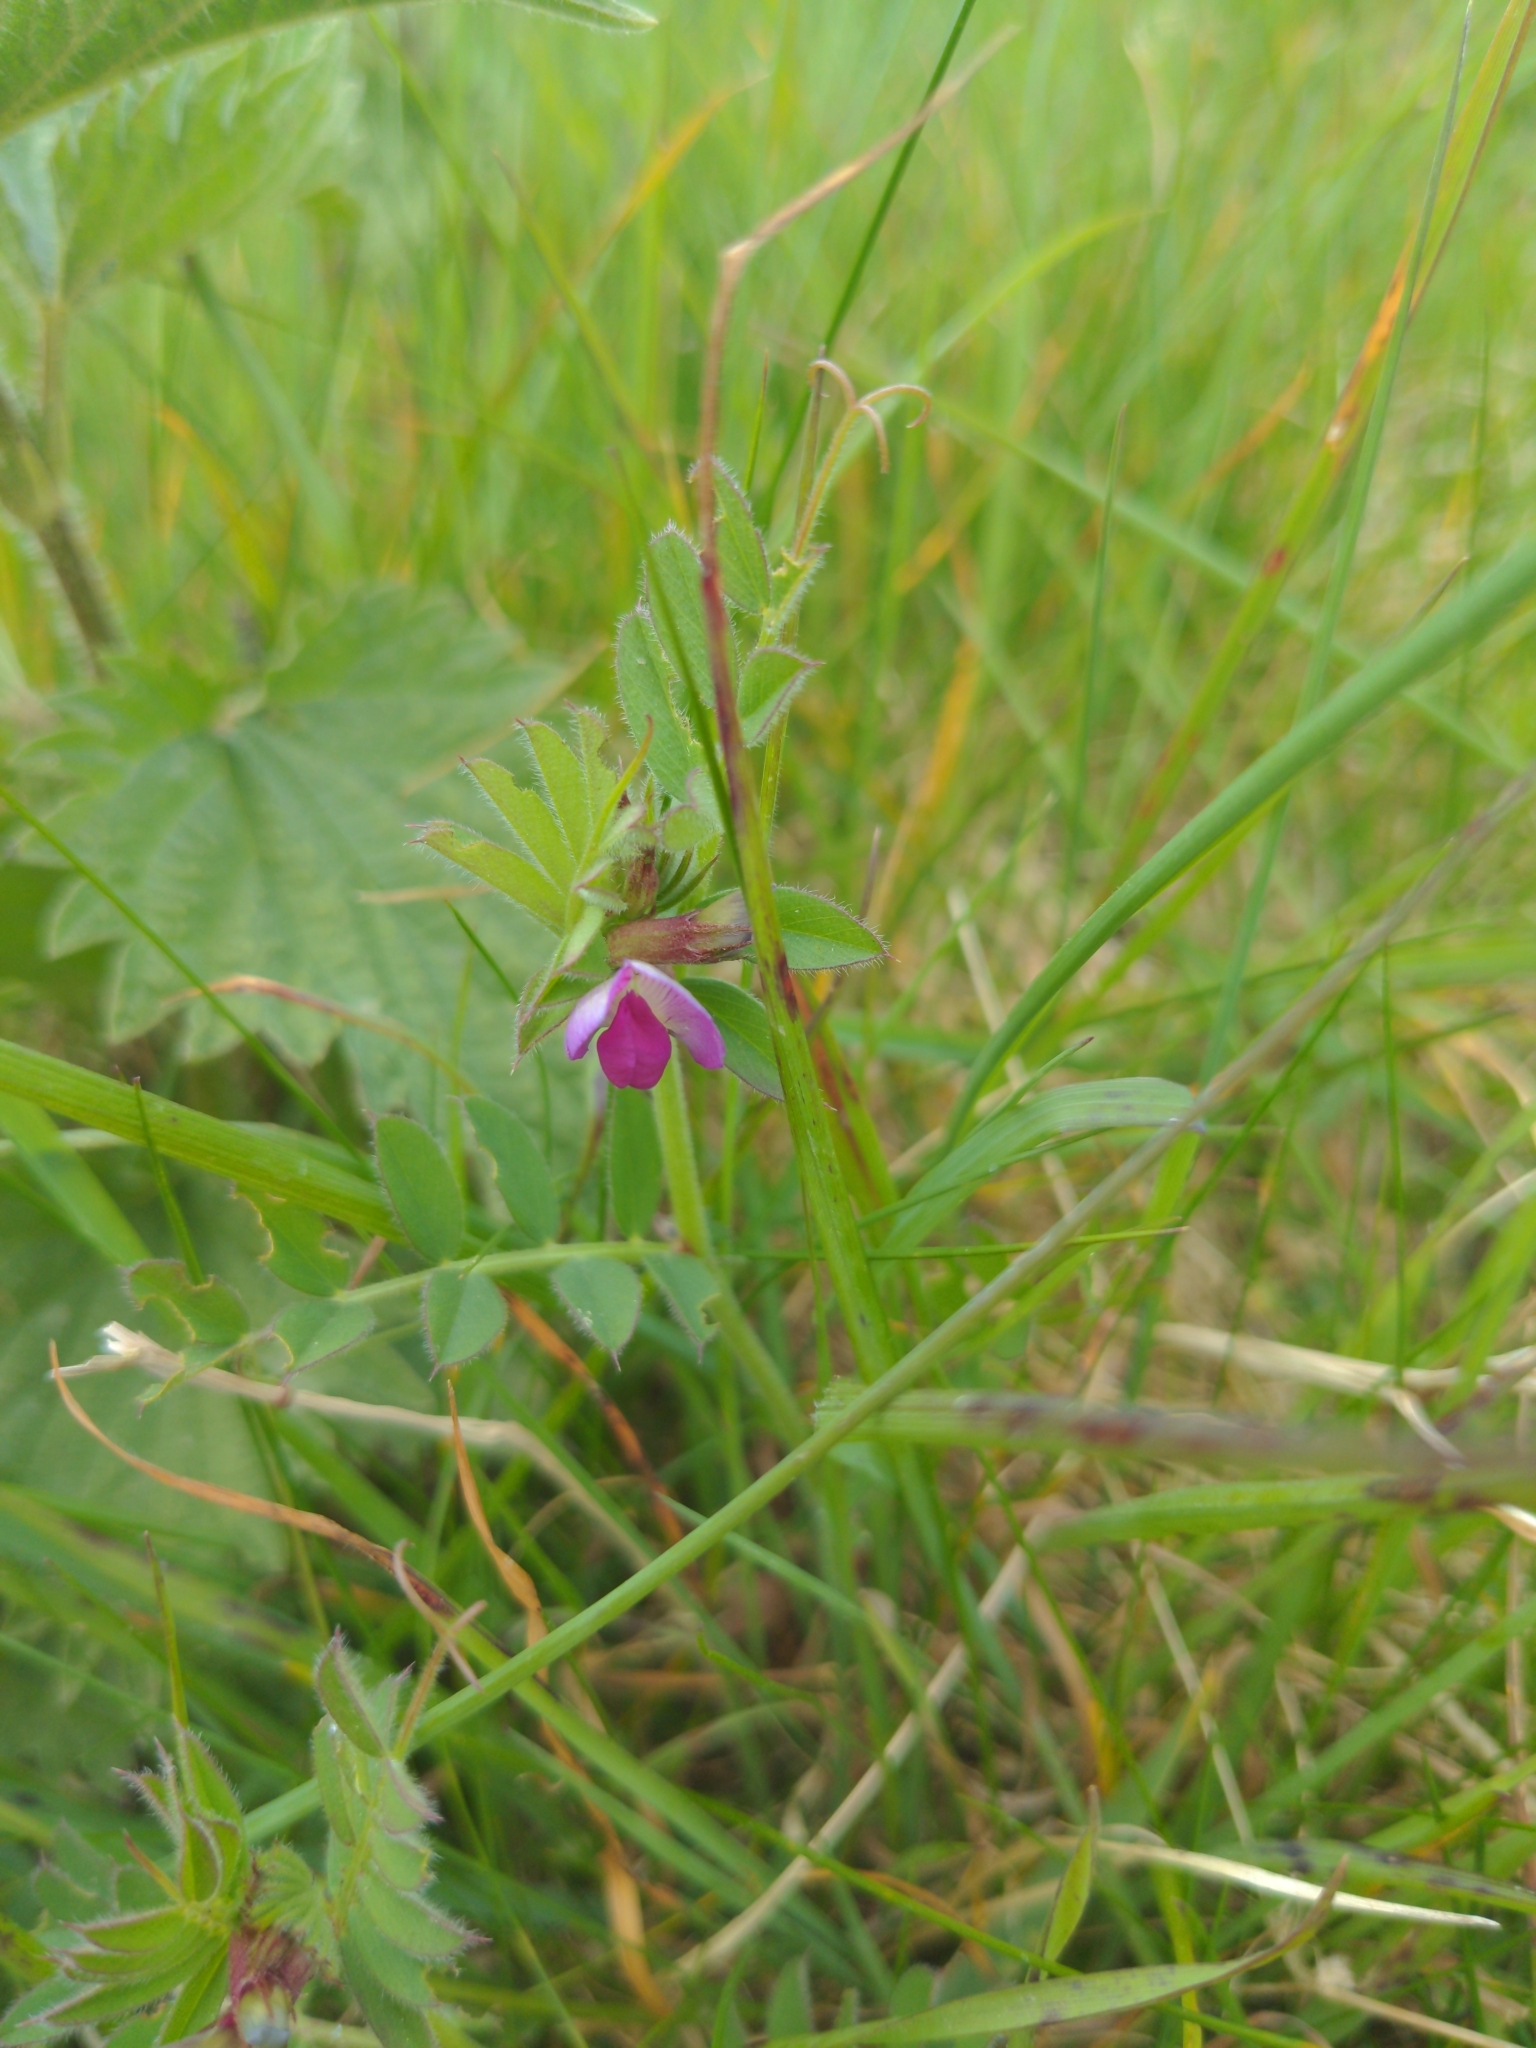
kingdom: Plantae
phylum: Tracheophyta
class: Magnoliopsida
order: Fabales
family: Fabaceae
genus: Vicia
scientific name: Vicia sativa
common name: Garden vetch
